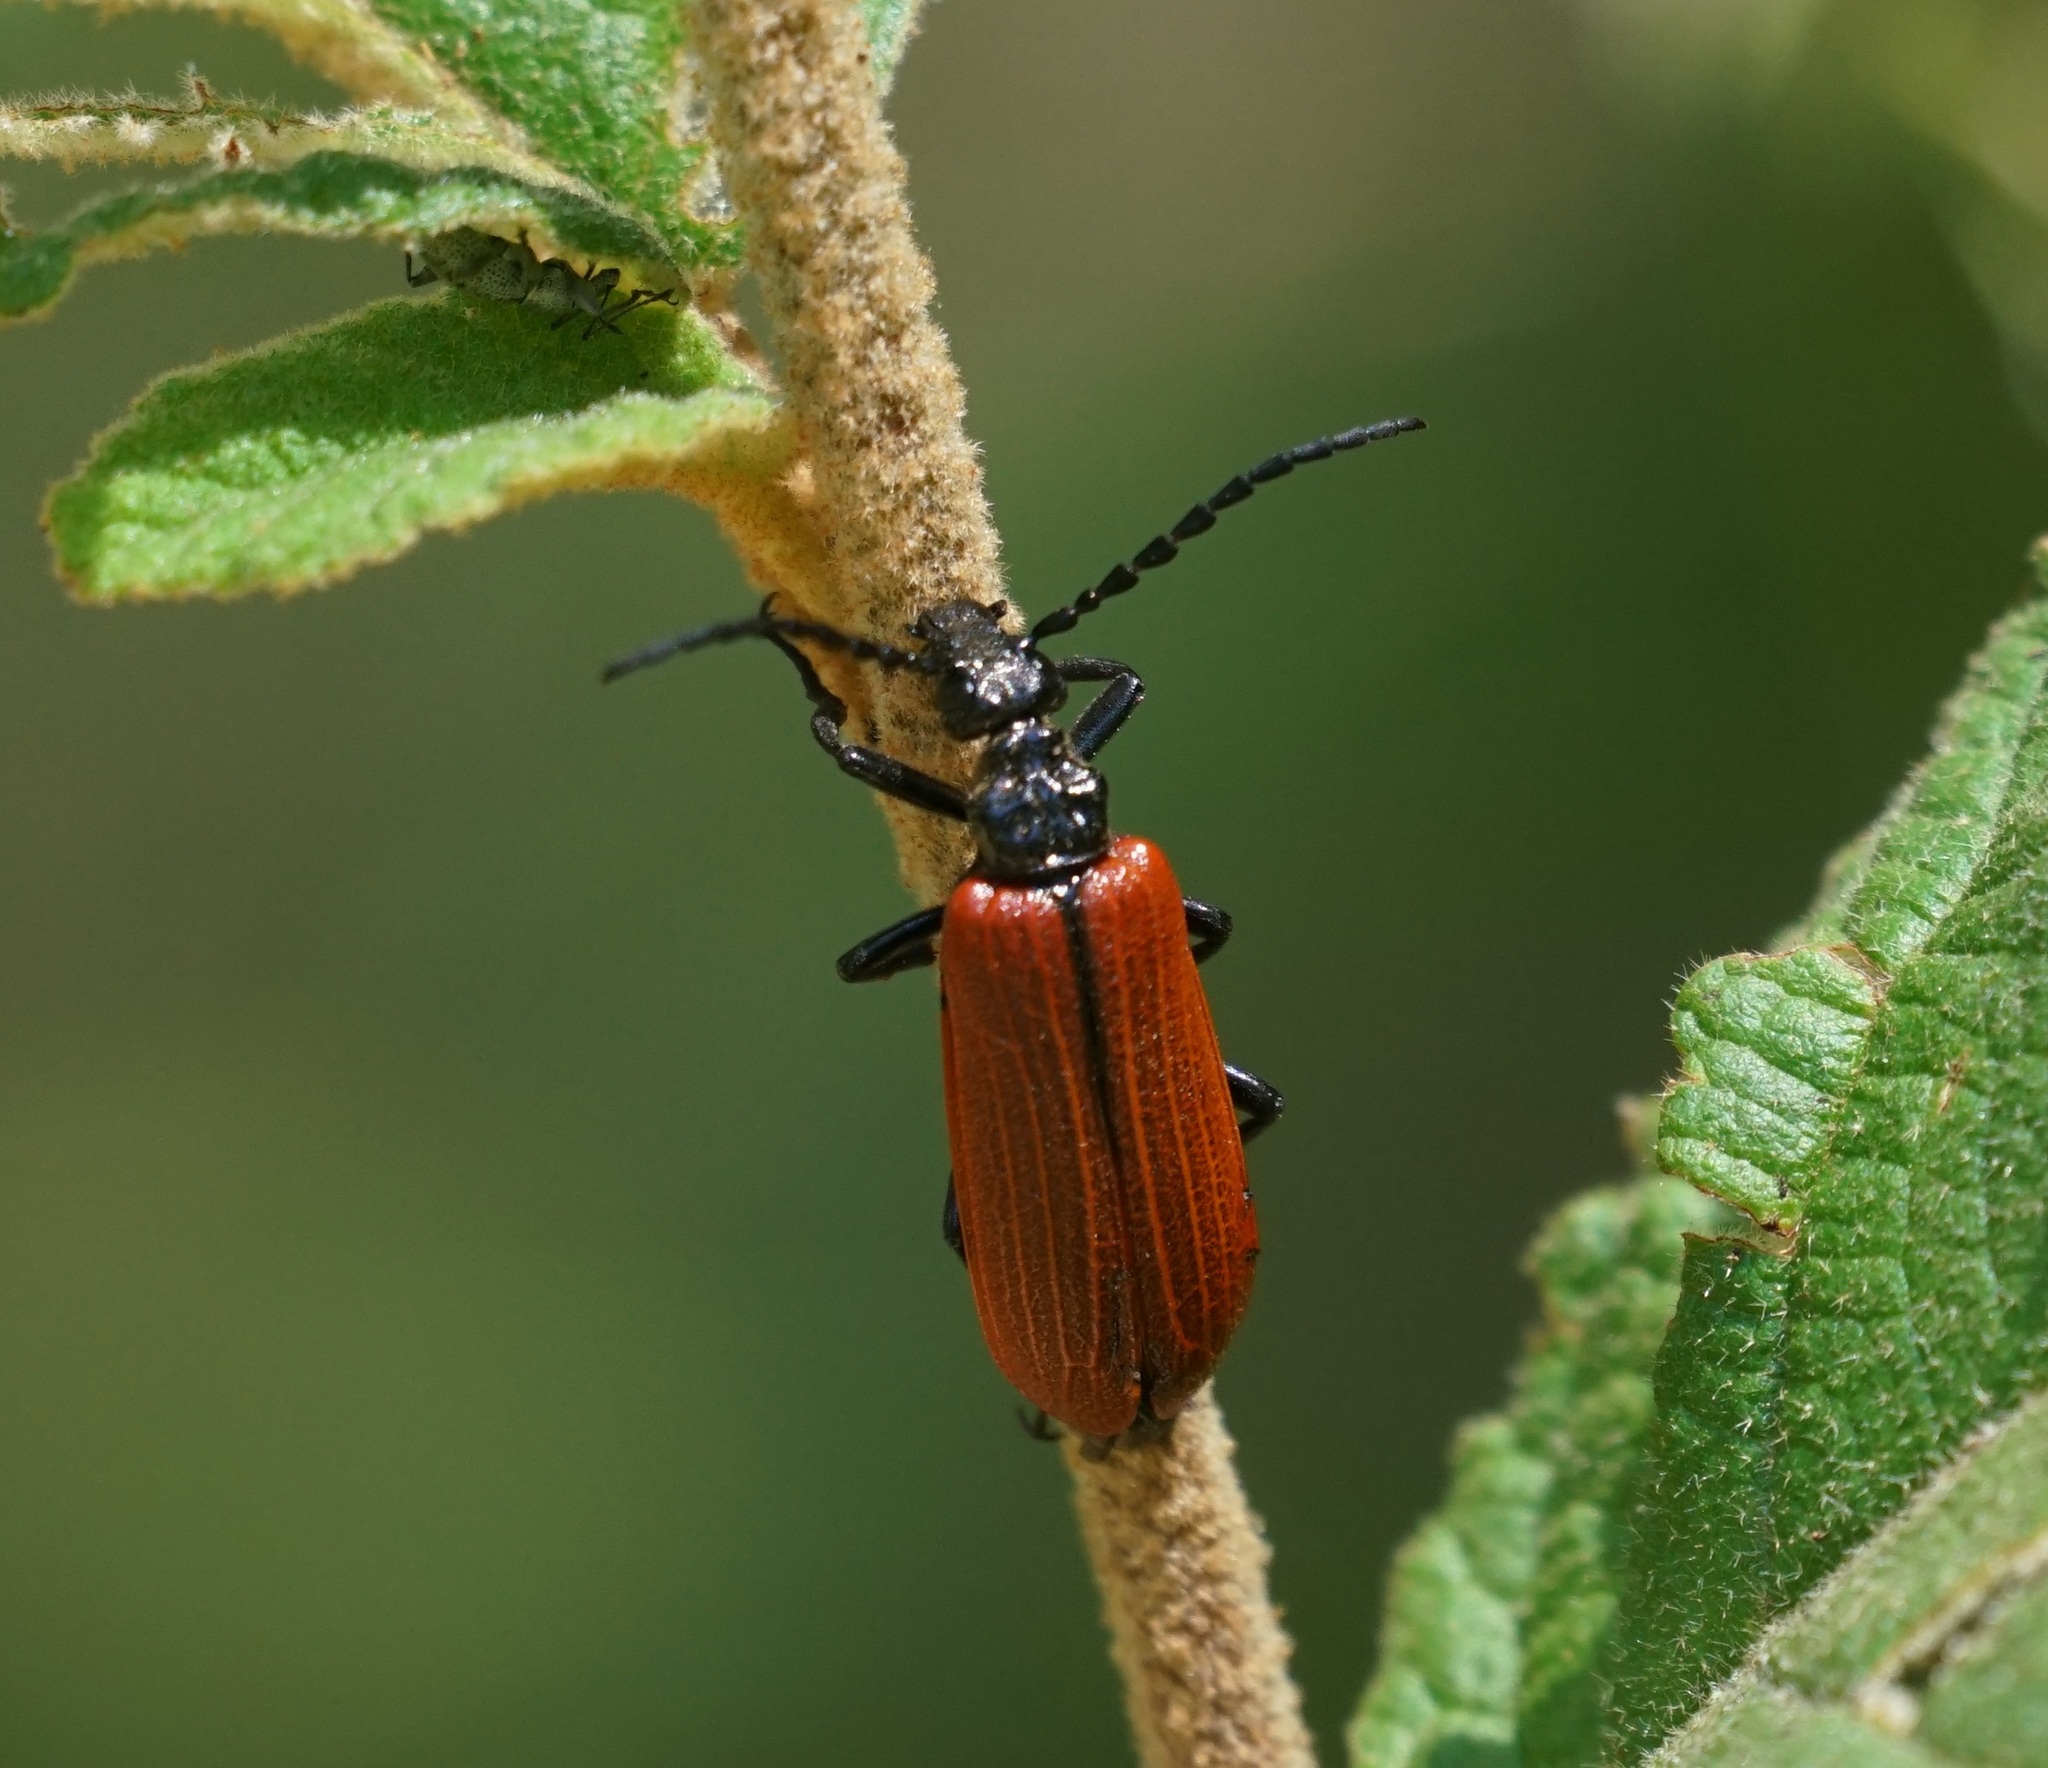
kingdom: Animalia
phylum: Arthropoda
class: Insecta
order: Coleoptera
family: Meloidae
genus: Palaestra
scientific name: Palaestra
